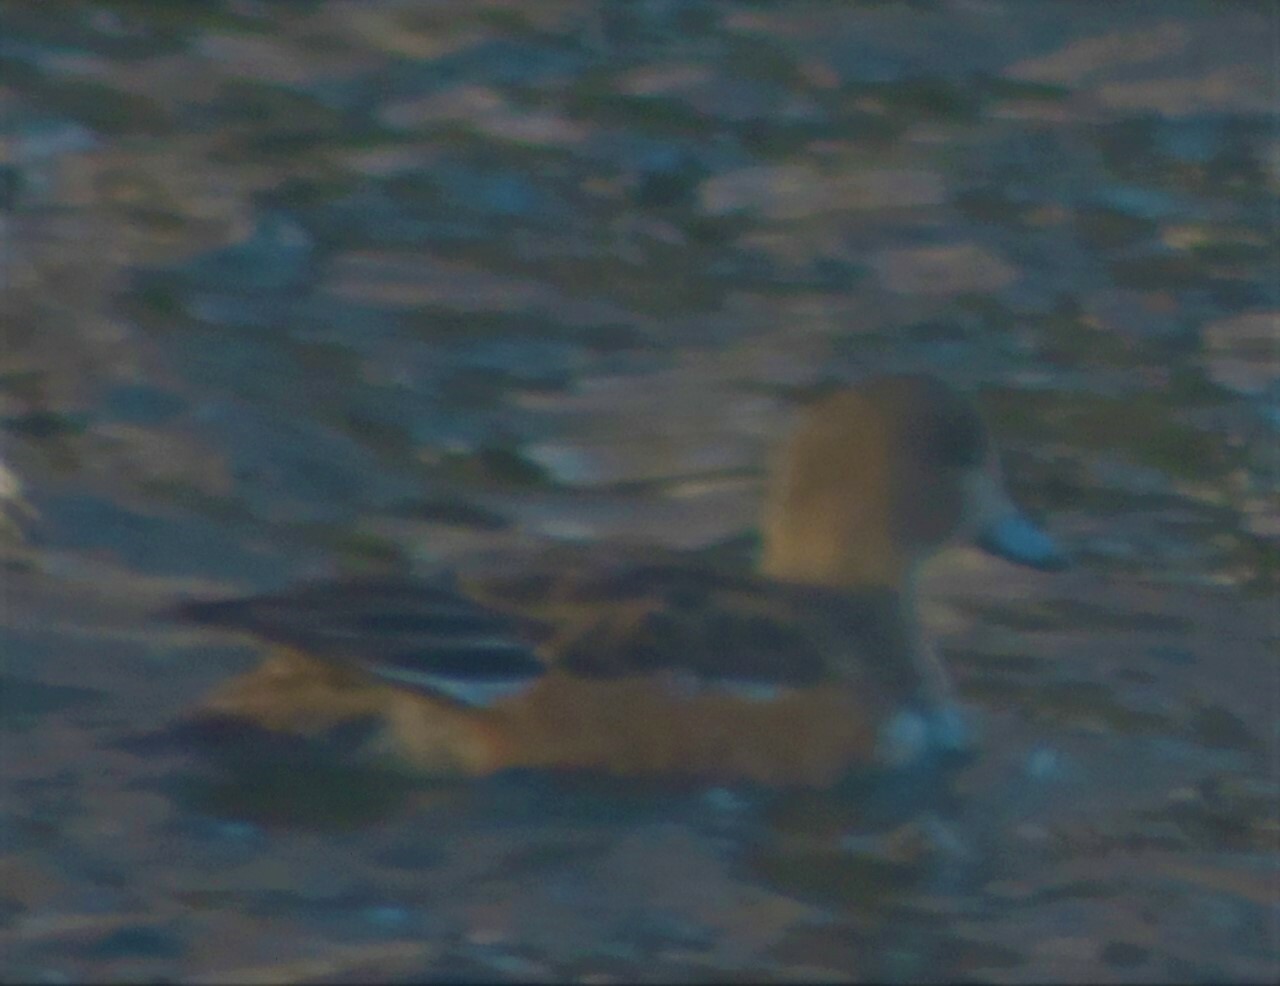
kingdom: Animalia
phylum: Chordata
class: Aves
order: Anseriformes
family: Anatidae
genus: Mareca
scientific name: Mareca americana
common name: American wigeon
